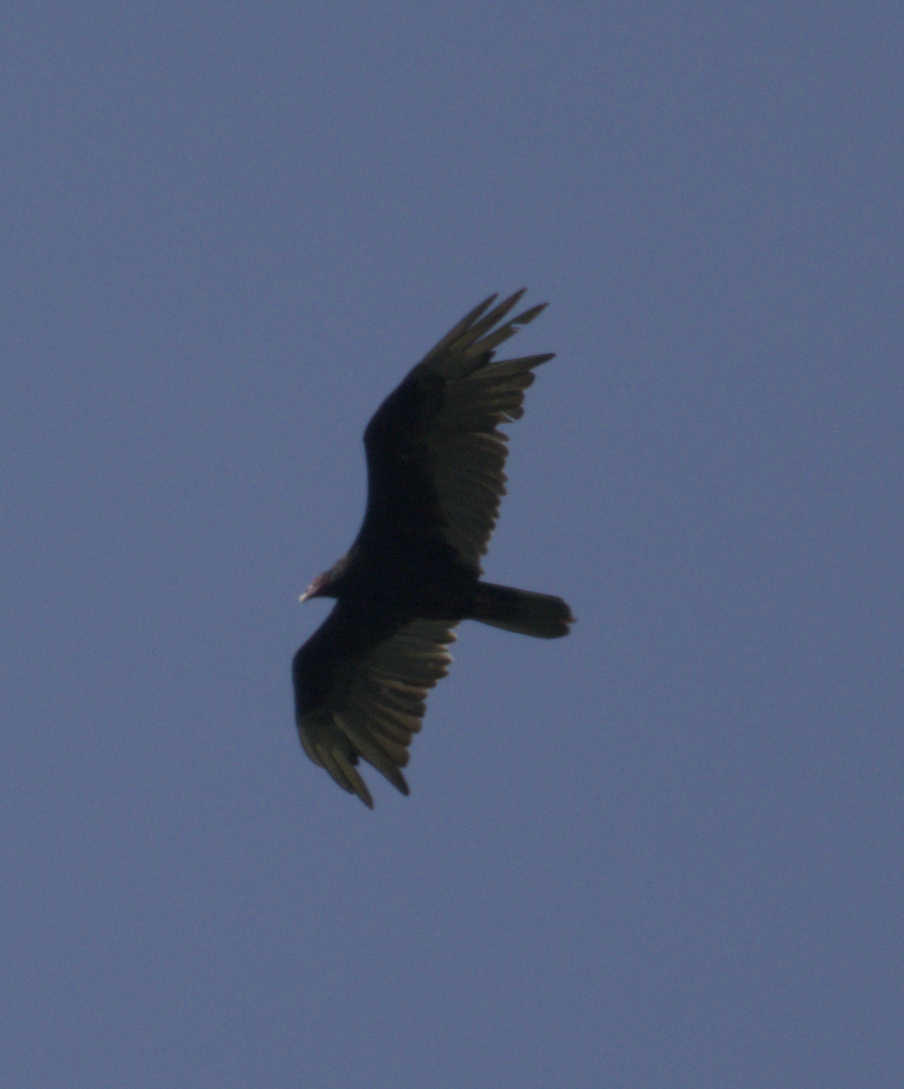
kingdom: Animalia
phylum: Chordata
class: Aves
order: Accipitriformes
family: Cathartidae
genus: Cathartes
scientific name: Cathartes aura
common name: Turkey vulture
